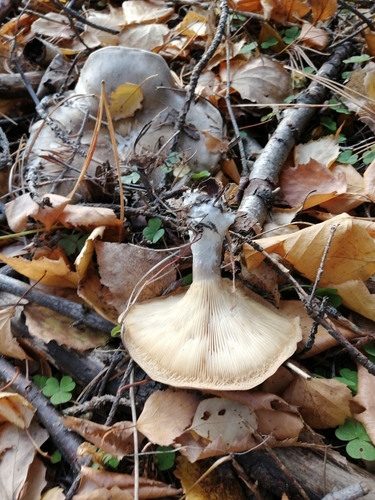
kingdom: Fungi
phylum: Basidiomycota
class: Agaricomycetes
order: Agaricales
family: Tricholomataceae
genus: Clitocybe
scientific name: Clitocybe nebularis
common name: Clouded agaric
